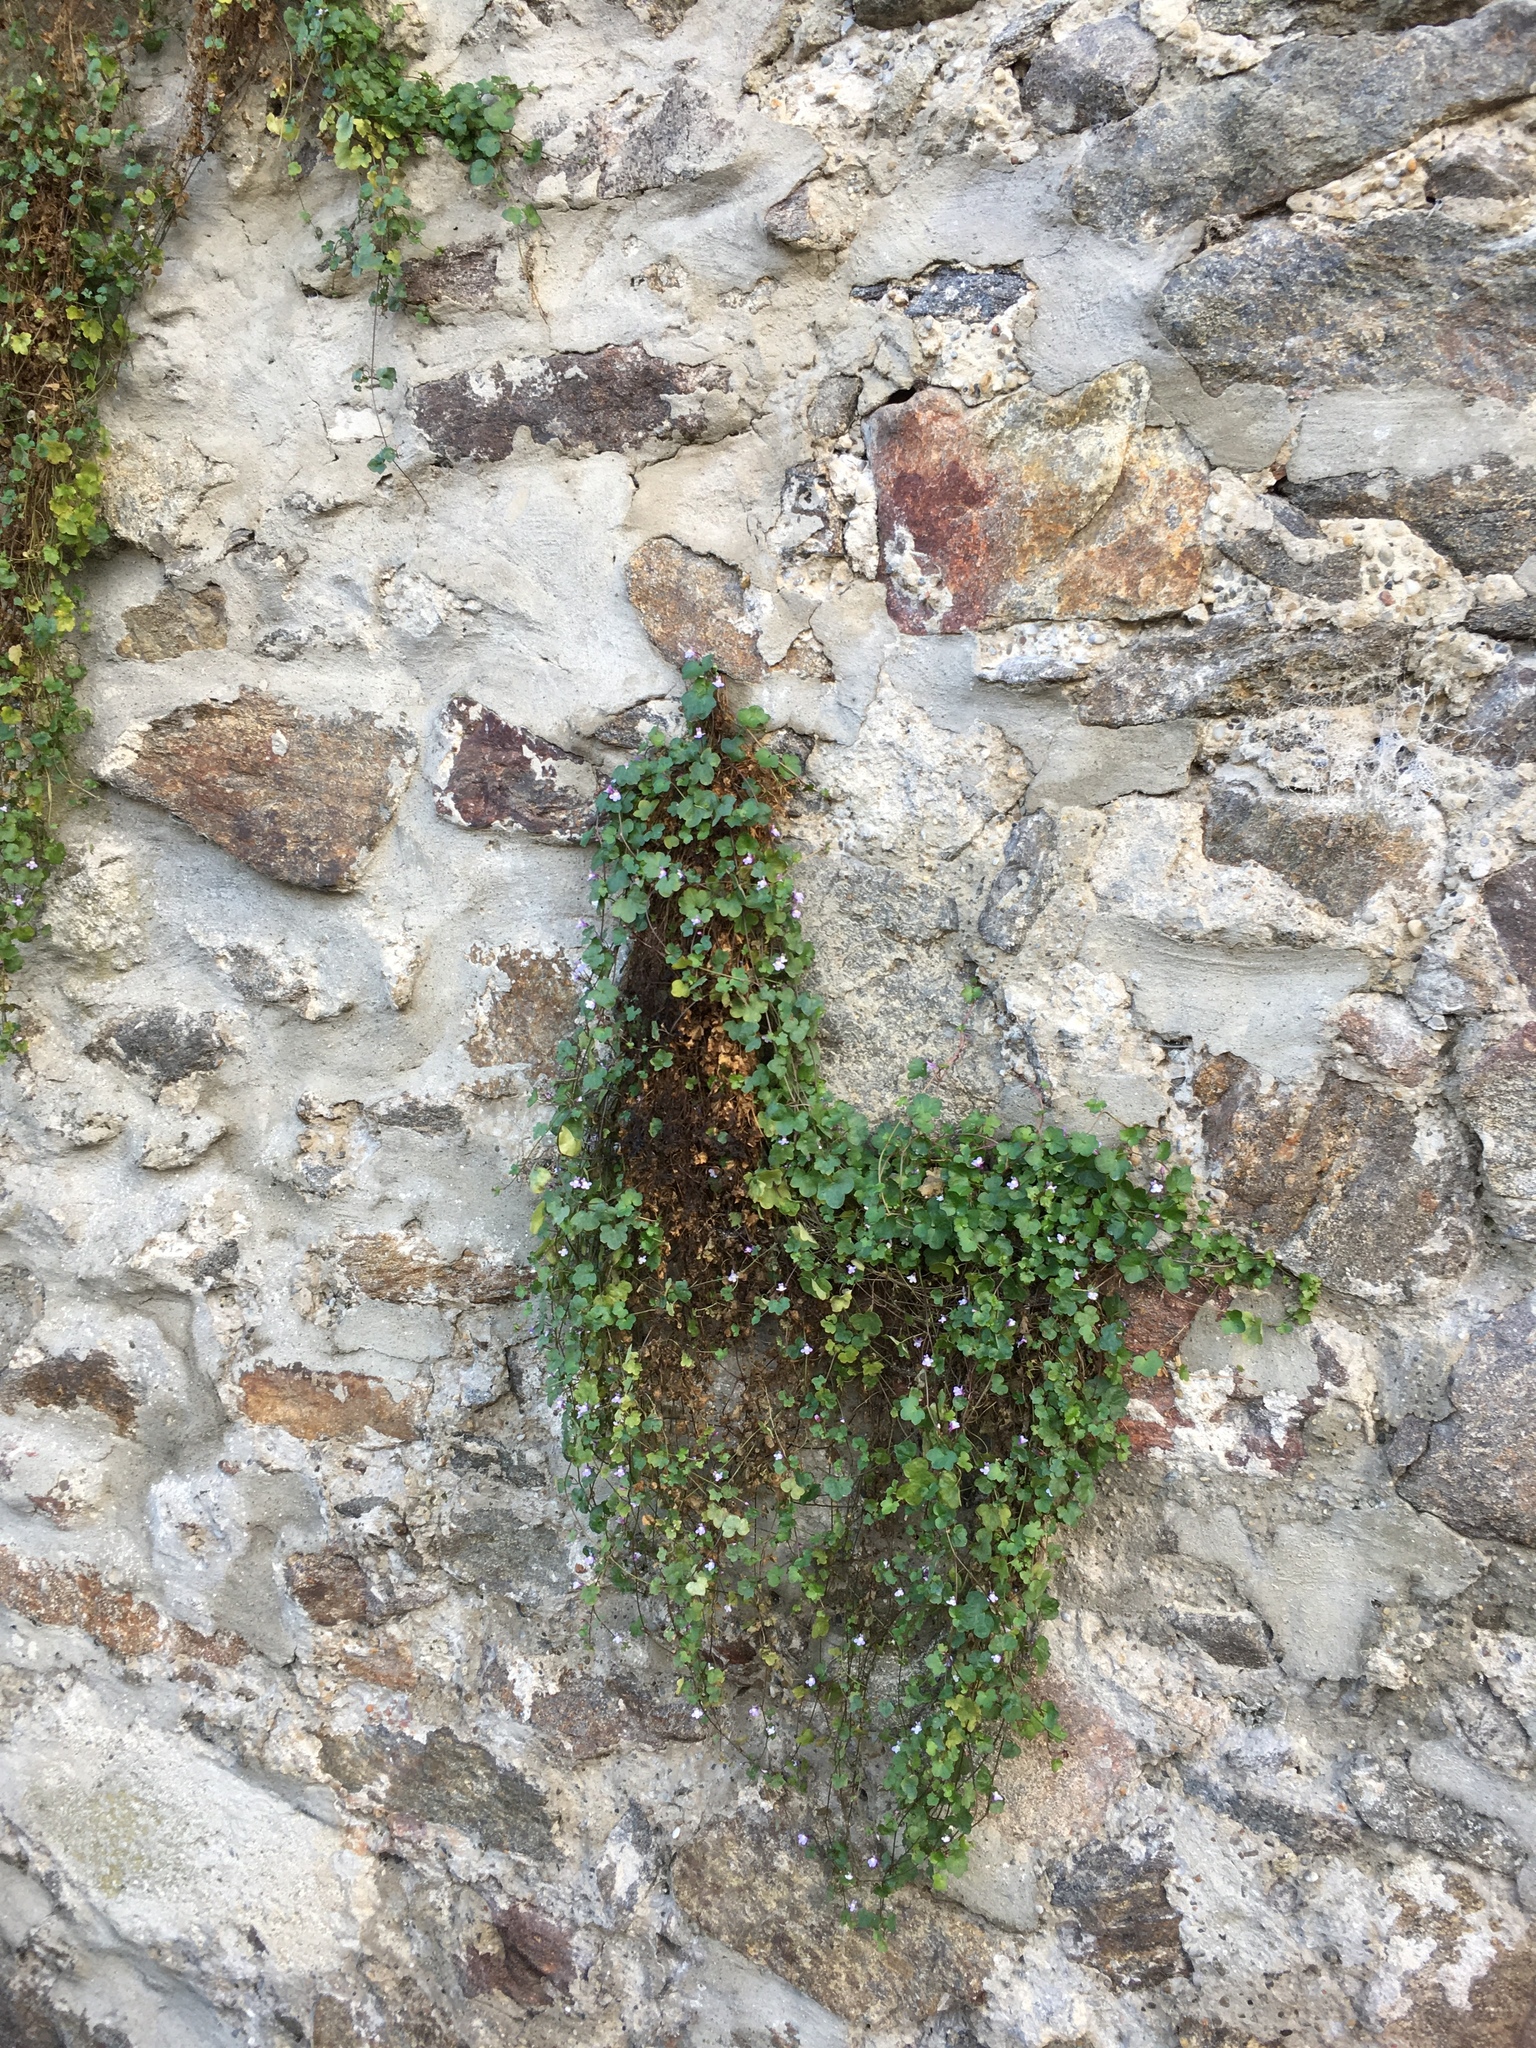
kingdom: Plantae
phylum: Tracheophyta
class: Magnoliopsida
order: Lamiales
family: Plantaginaceae
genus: Cymbalaria
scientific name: Cymbalaria muralis
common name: Ivy-leaved toadflax
